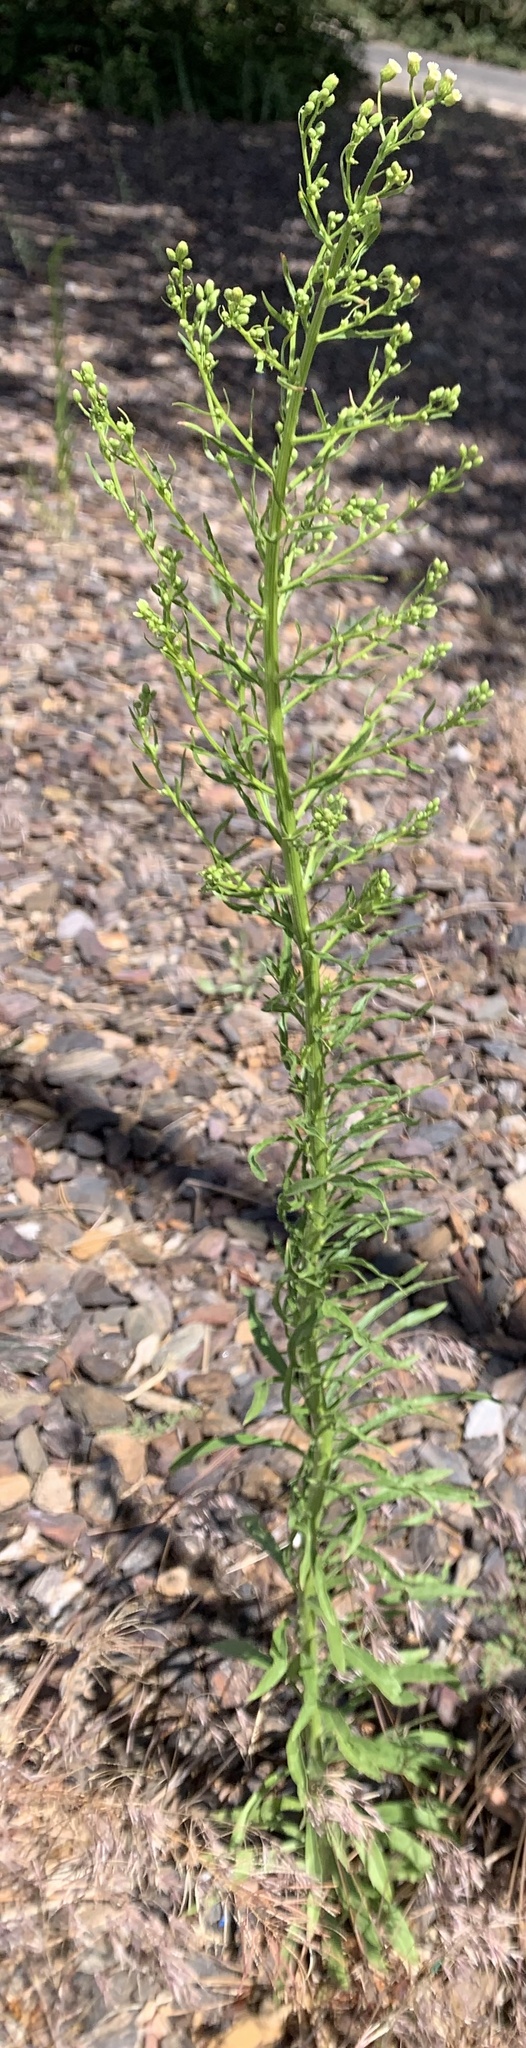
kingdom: Plantae
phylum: Tracheophyta
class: Magnoliopsida
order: Asterales
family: Asteraceae
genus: Erigeron
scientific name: Erigeron canadensis
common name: Canadian fleabane
